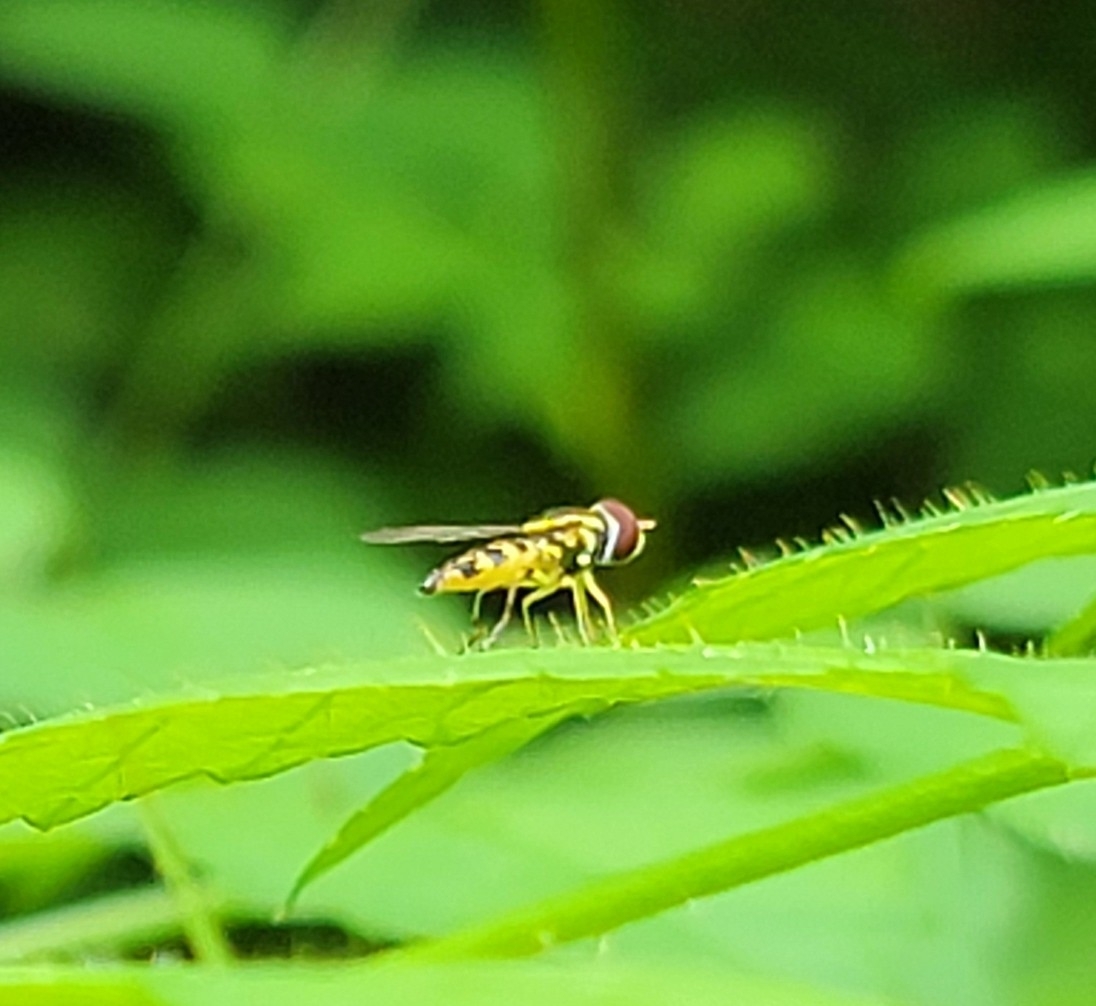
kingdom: Animalia
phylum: Arthropoda
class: Insecta
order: Diptera
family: Syrphidae
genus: Toxomerus
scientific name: Toxomerus geminatus
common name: Eastern calligrapher
